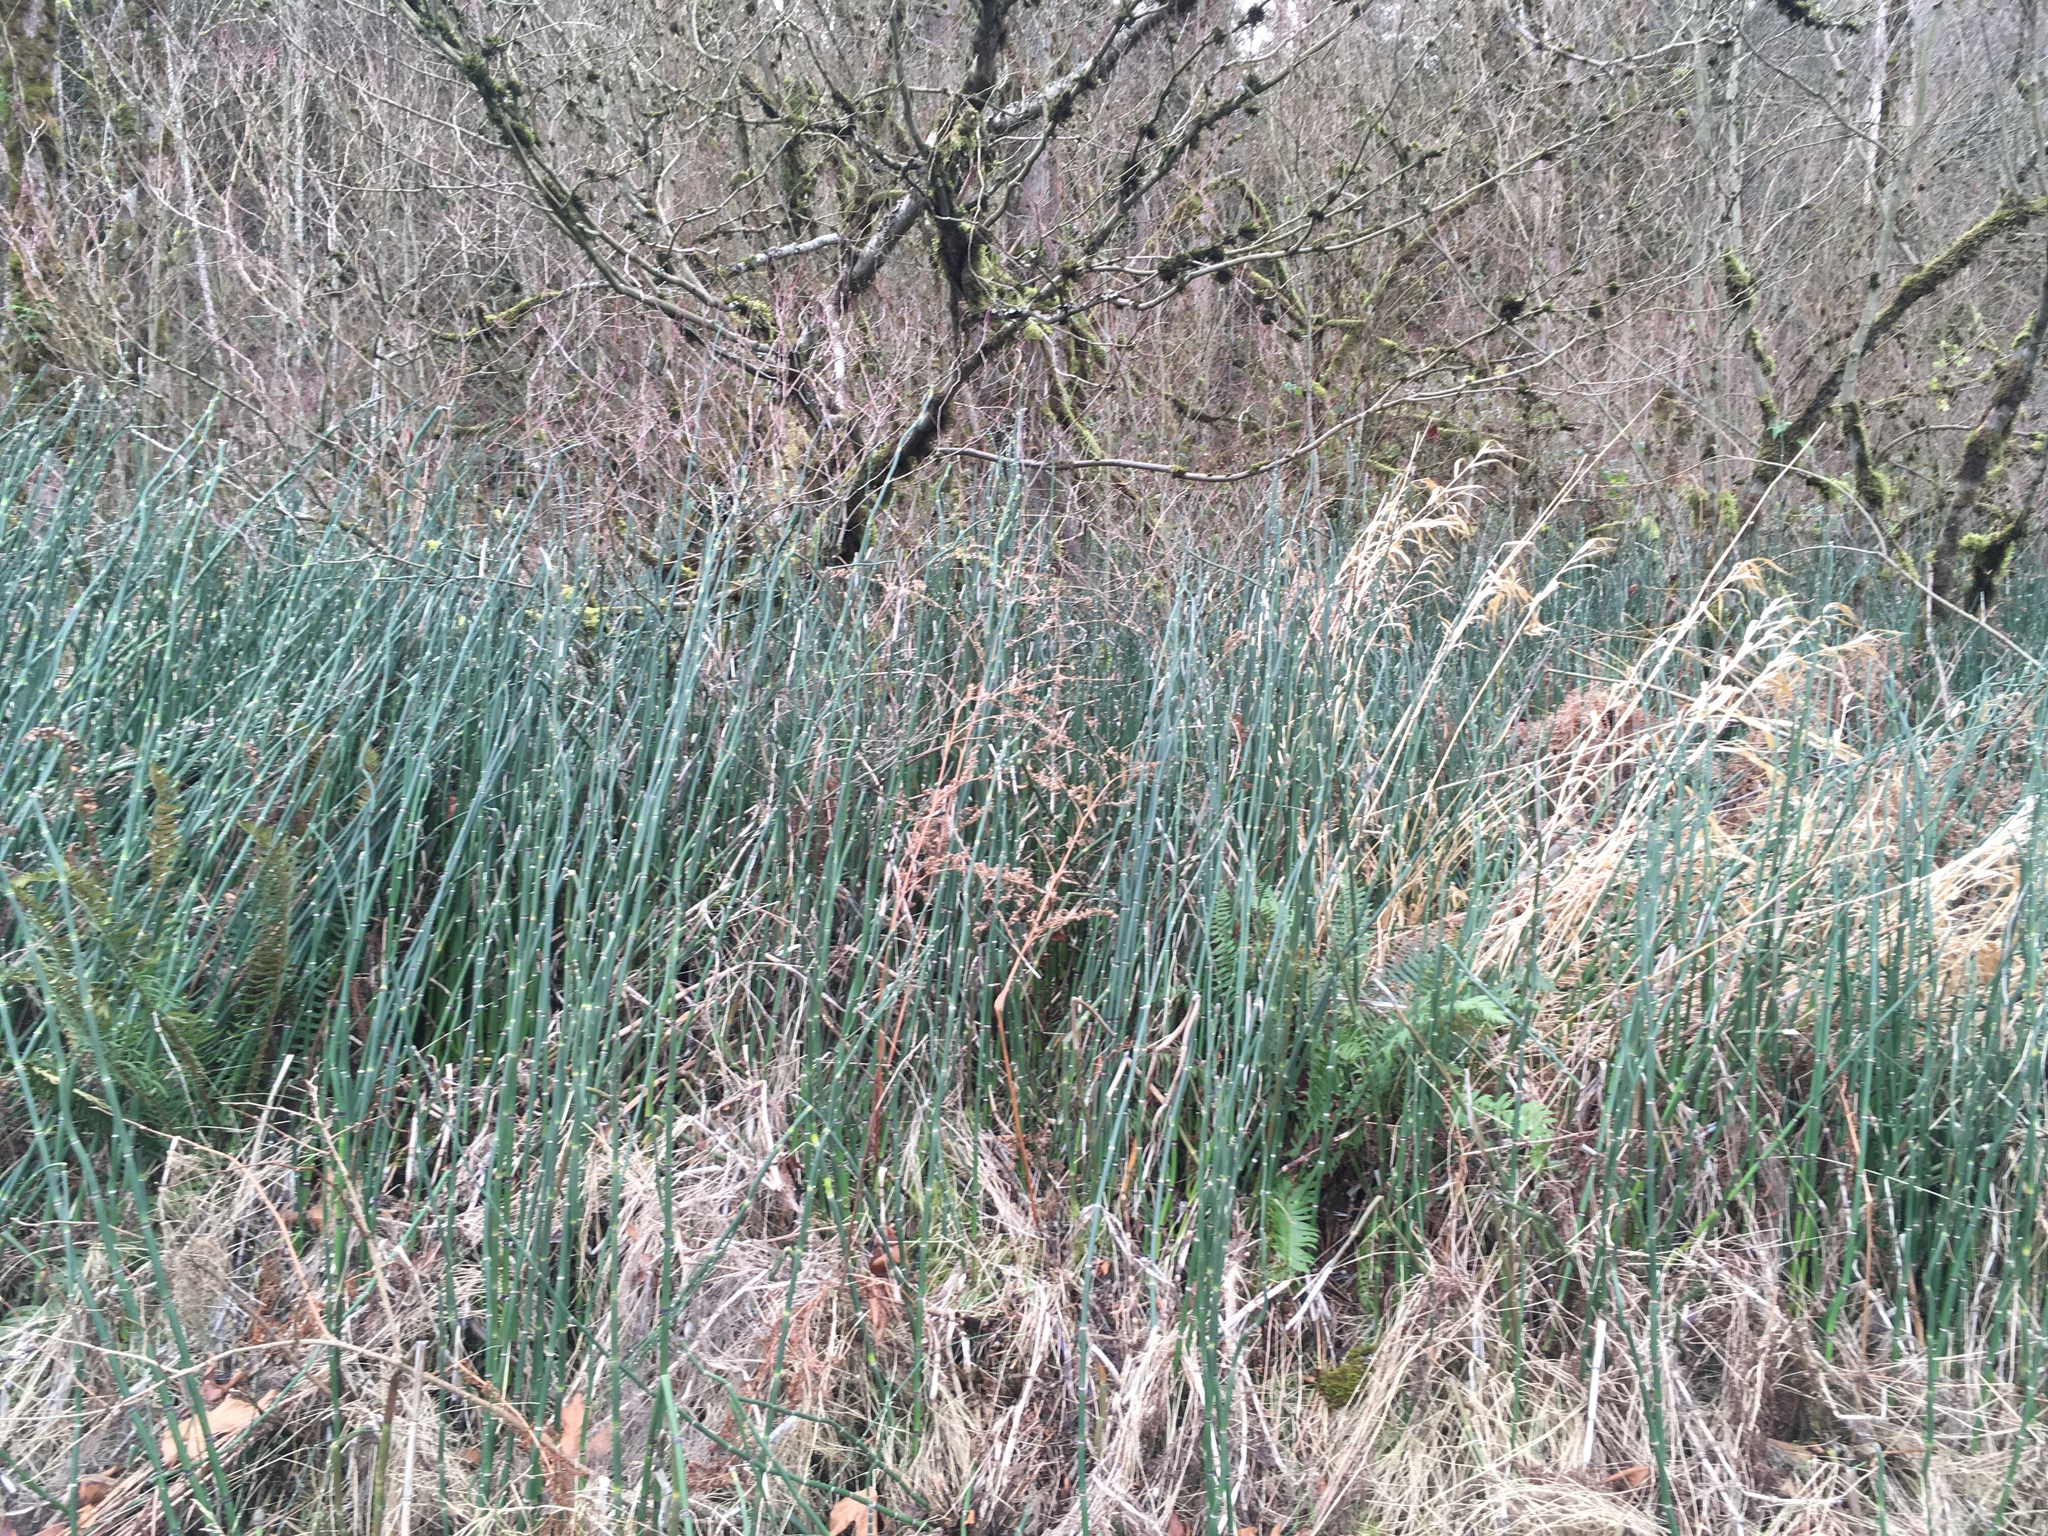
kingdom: Plantae
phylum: Tracheophyta
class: Polypodiopsida
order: Equisetales
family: Equisetaceae
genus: Equisetum
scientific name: Equisetum hyemale
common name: Rough horsetail
